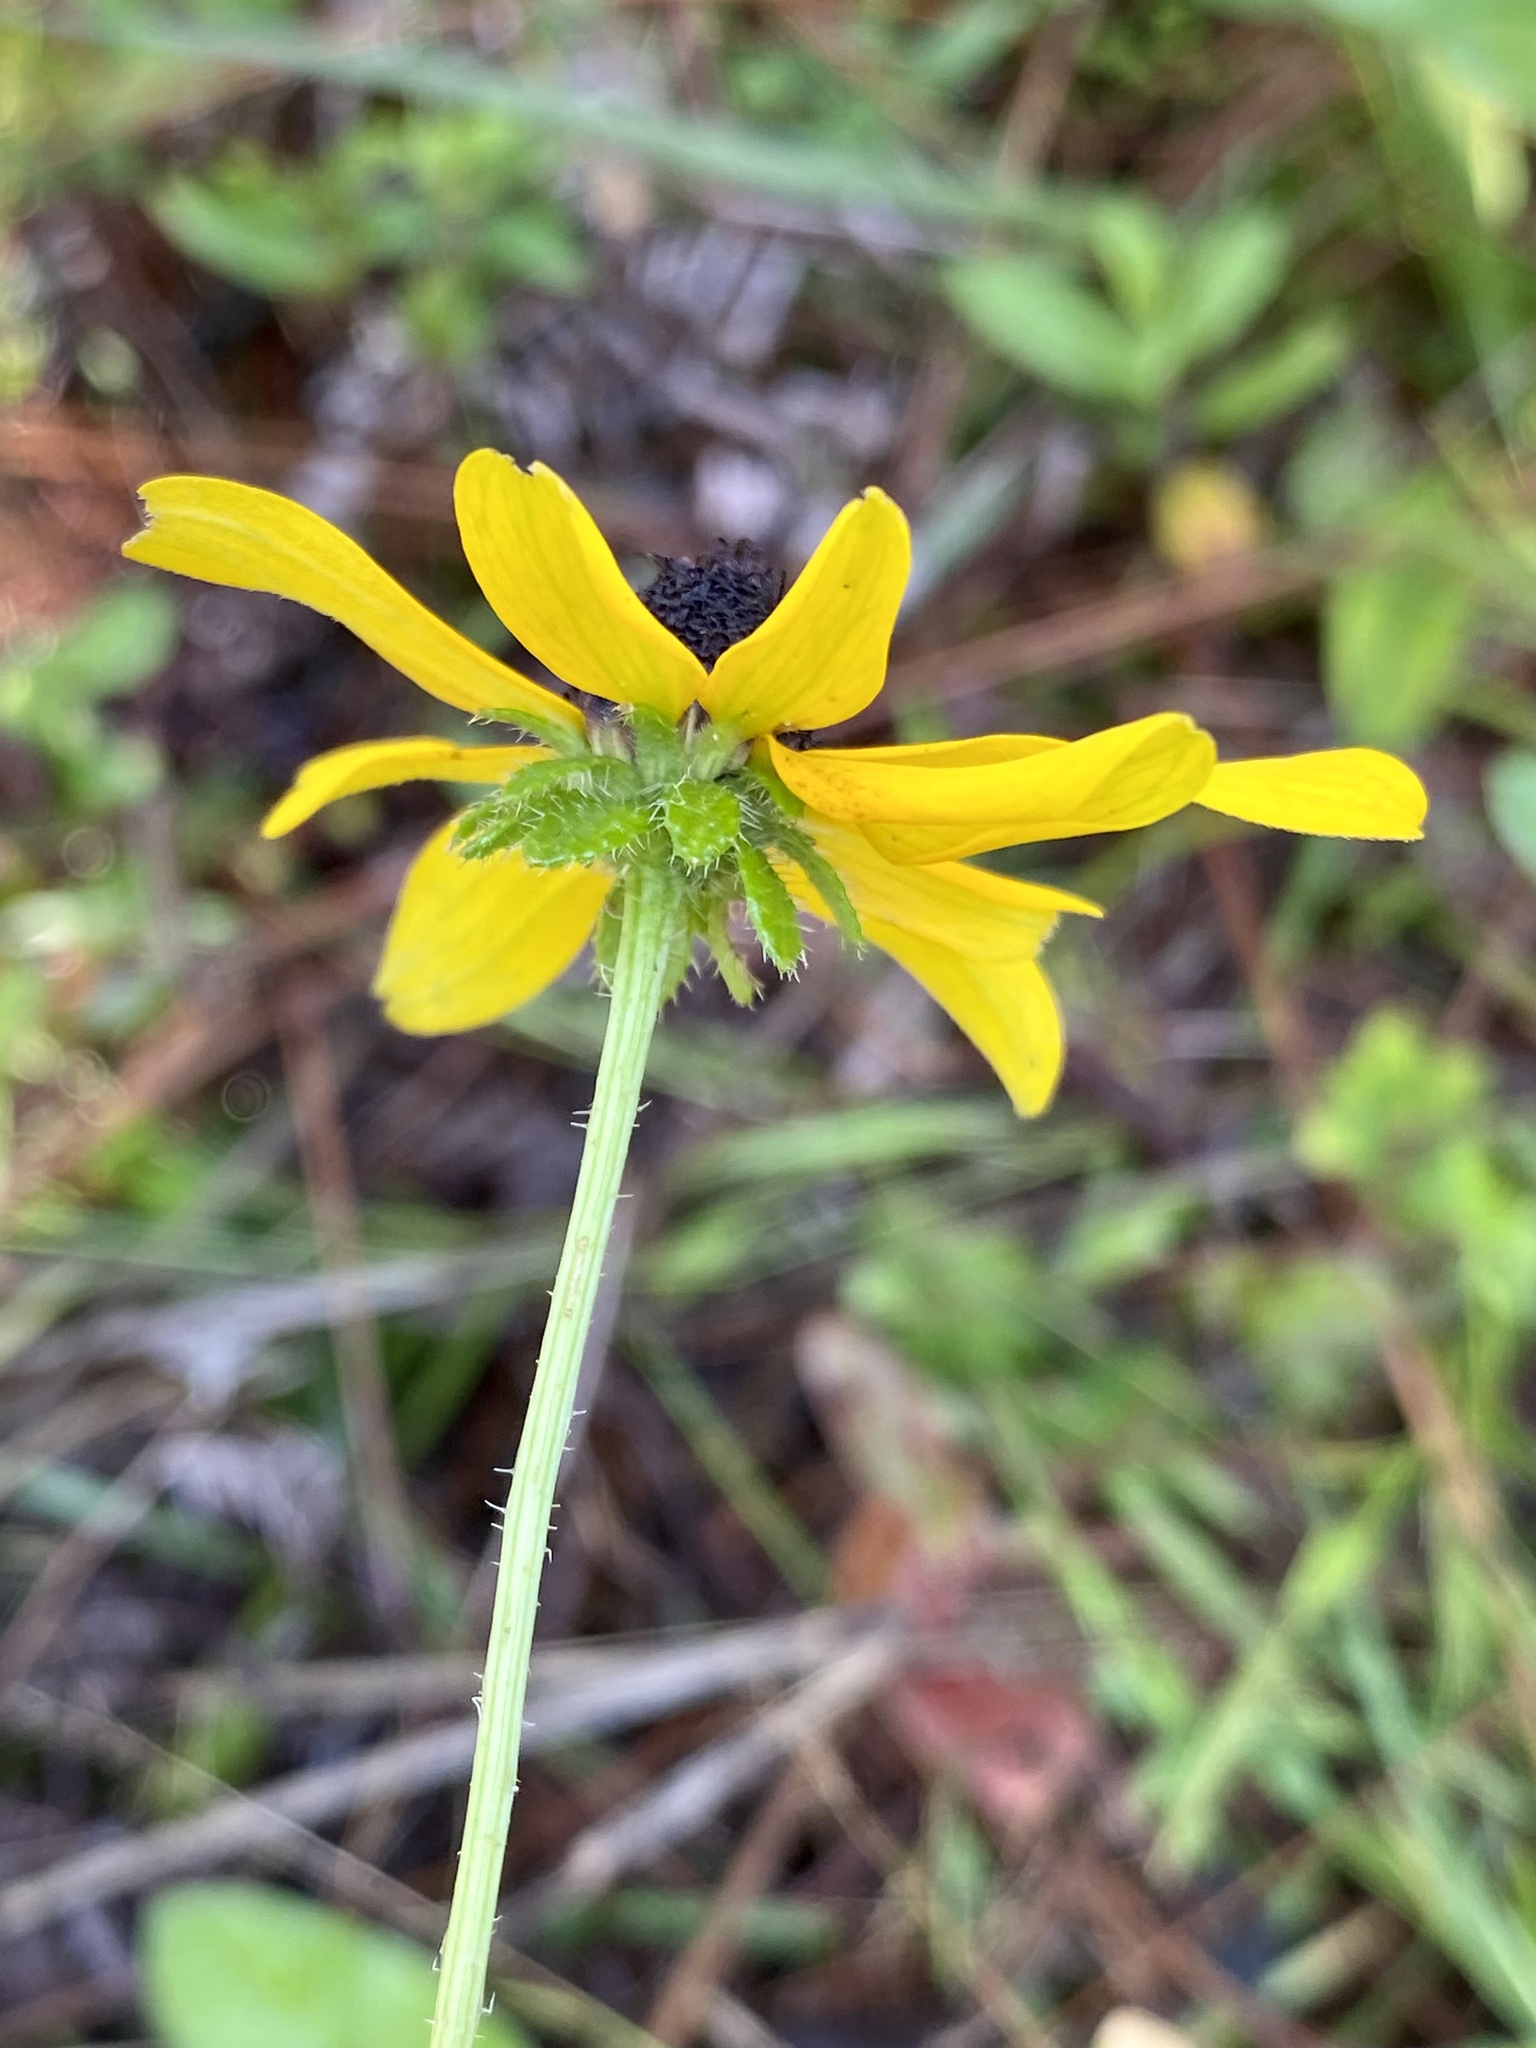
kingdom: Plantae
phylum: Tracheophyta
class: Magnoliopsida
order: Asterales
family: Asteraceae
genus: Rudbeckia
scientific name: Rudbeckia hirta
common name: Black-eyed-susan
